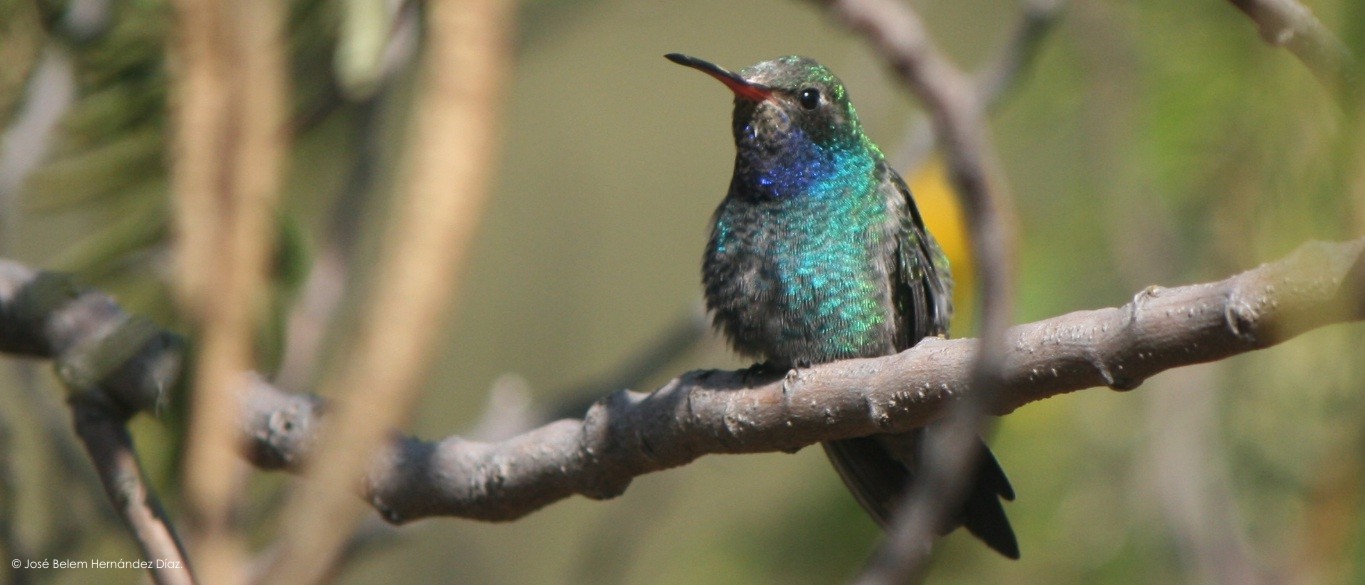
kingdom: Animalia
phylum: Chordata
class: Aves
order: Apodiformes
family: Trochilidae
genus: Cynanthus
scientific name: Cynanthus latirostris
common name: Broad-billed hummingbird
